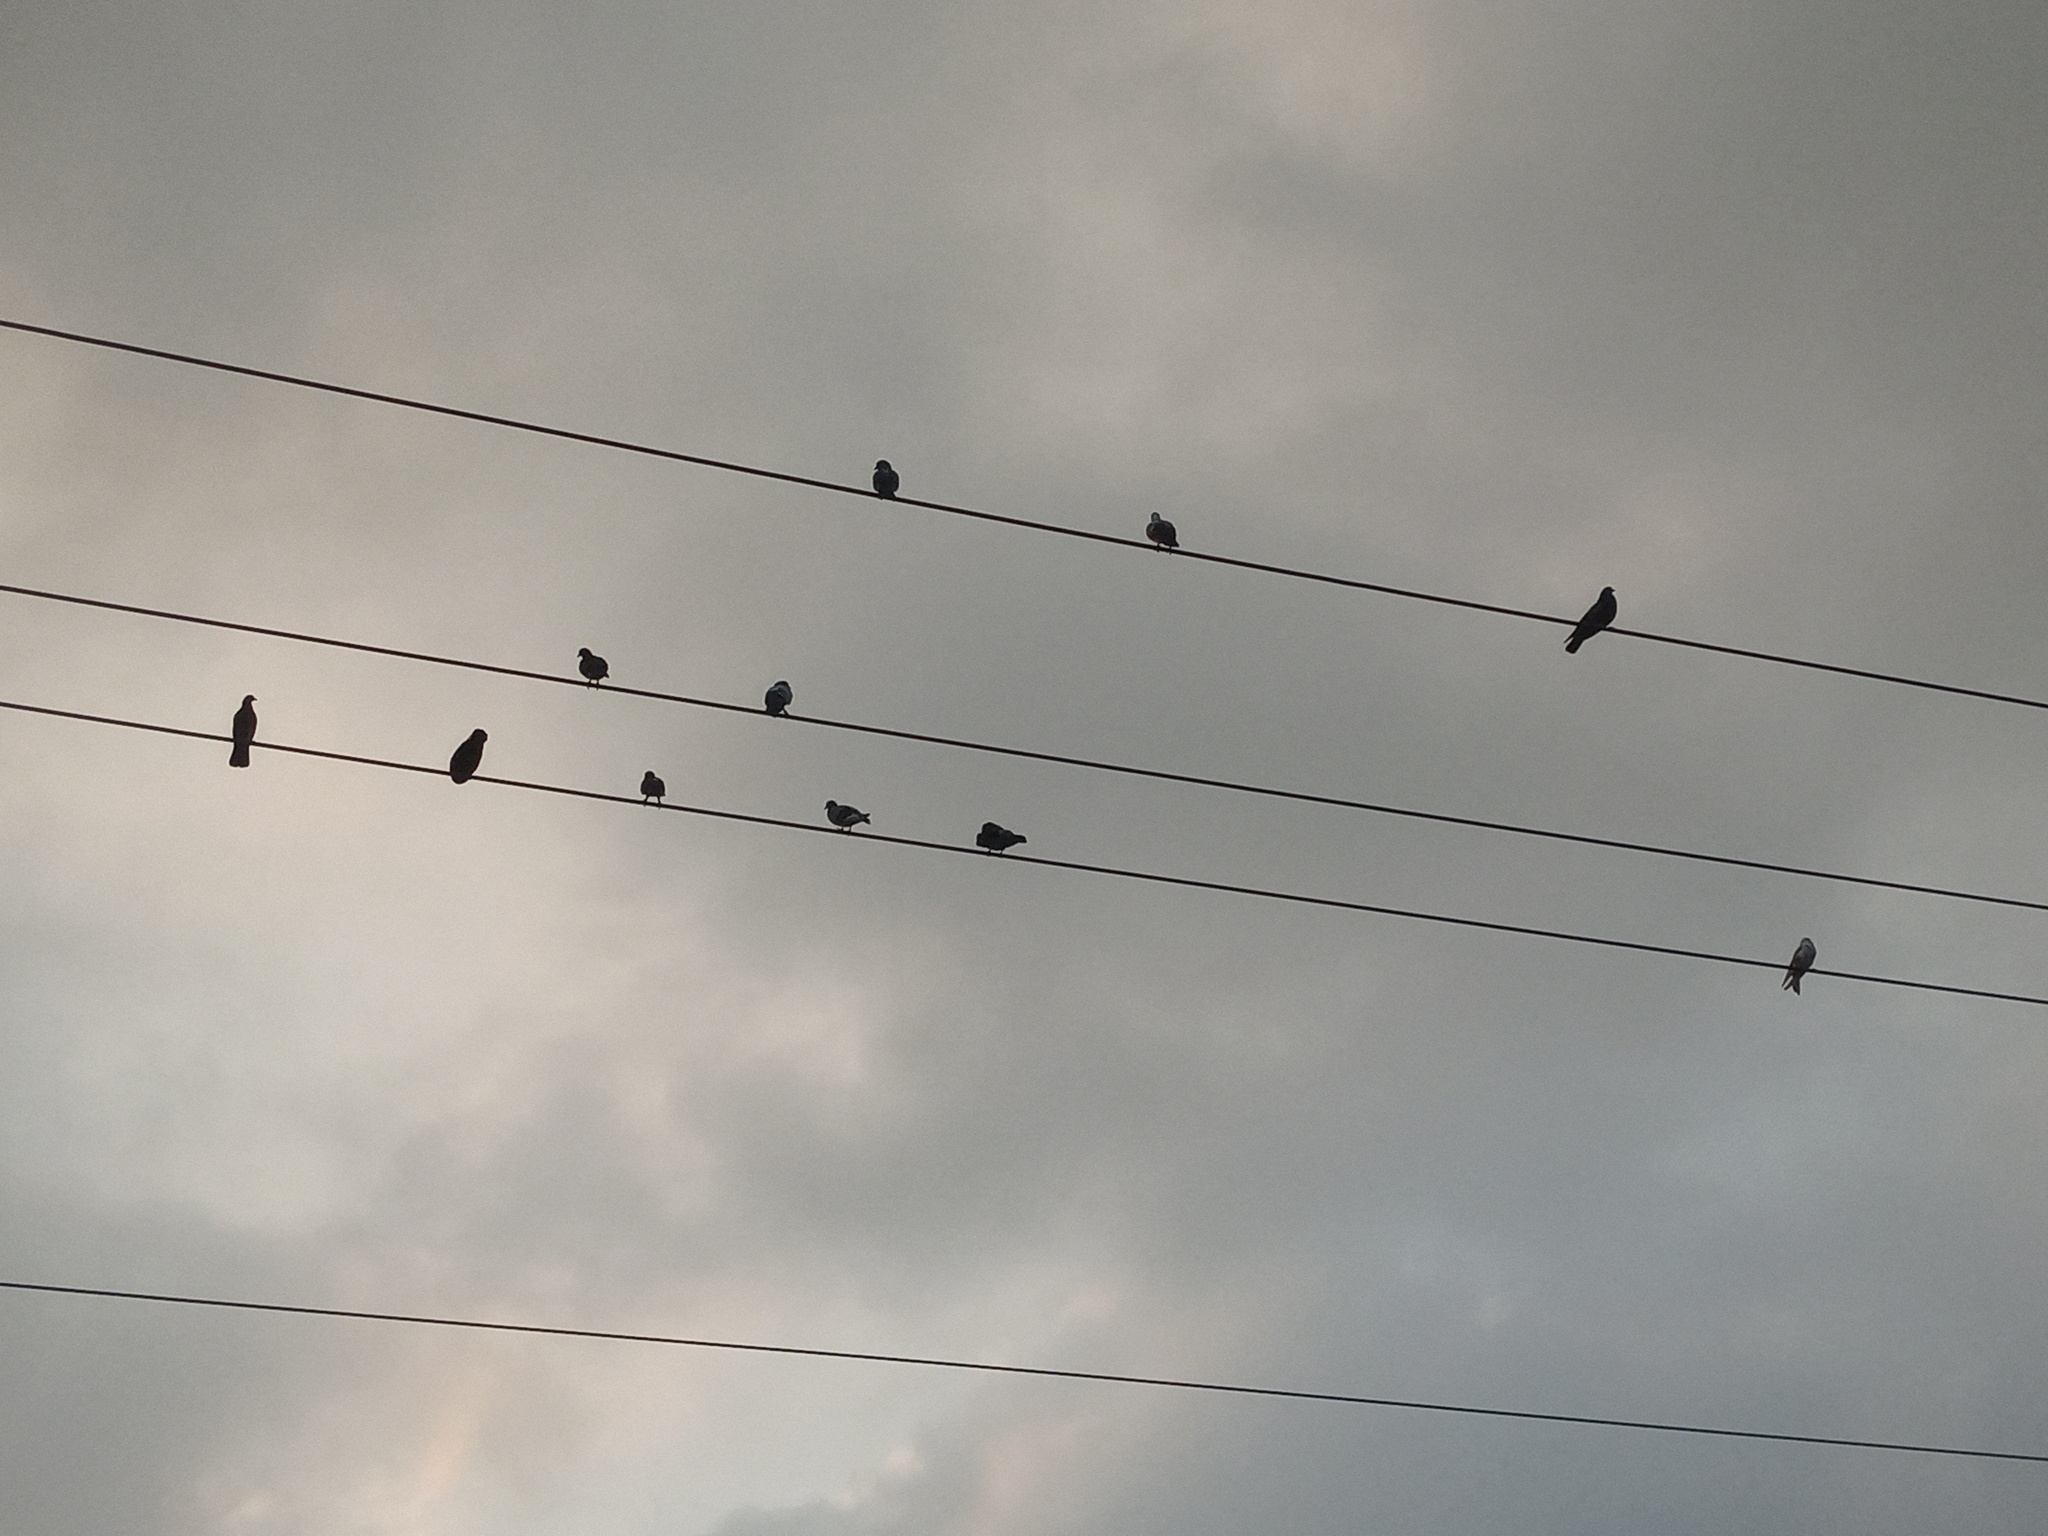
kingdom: Animalia
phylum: Chordata
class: Aves
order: Columbiformes
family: Columbidae
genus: Columba
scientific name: Columba livia
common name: Rock pigeon
